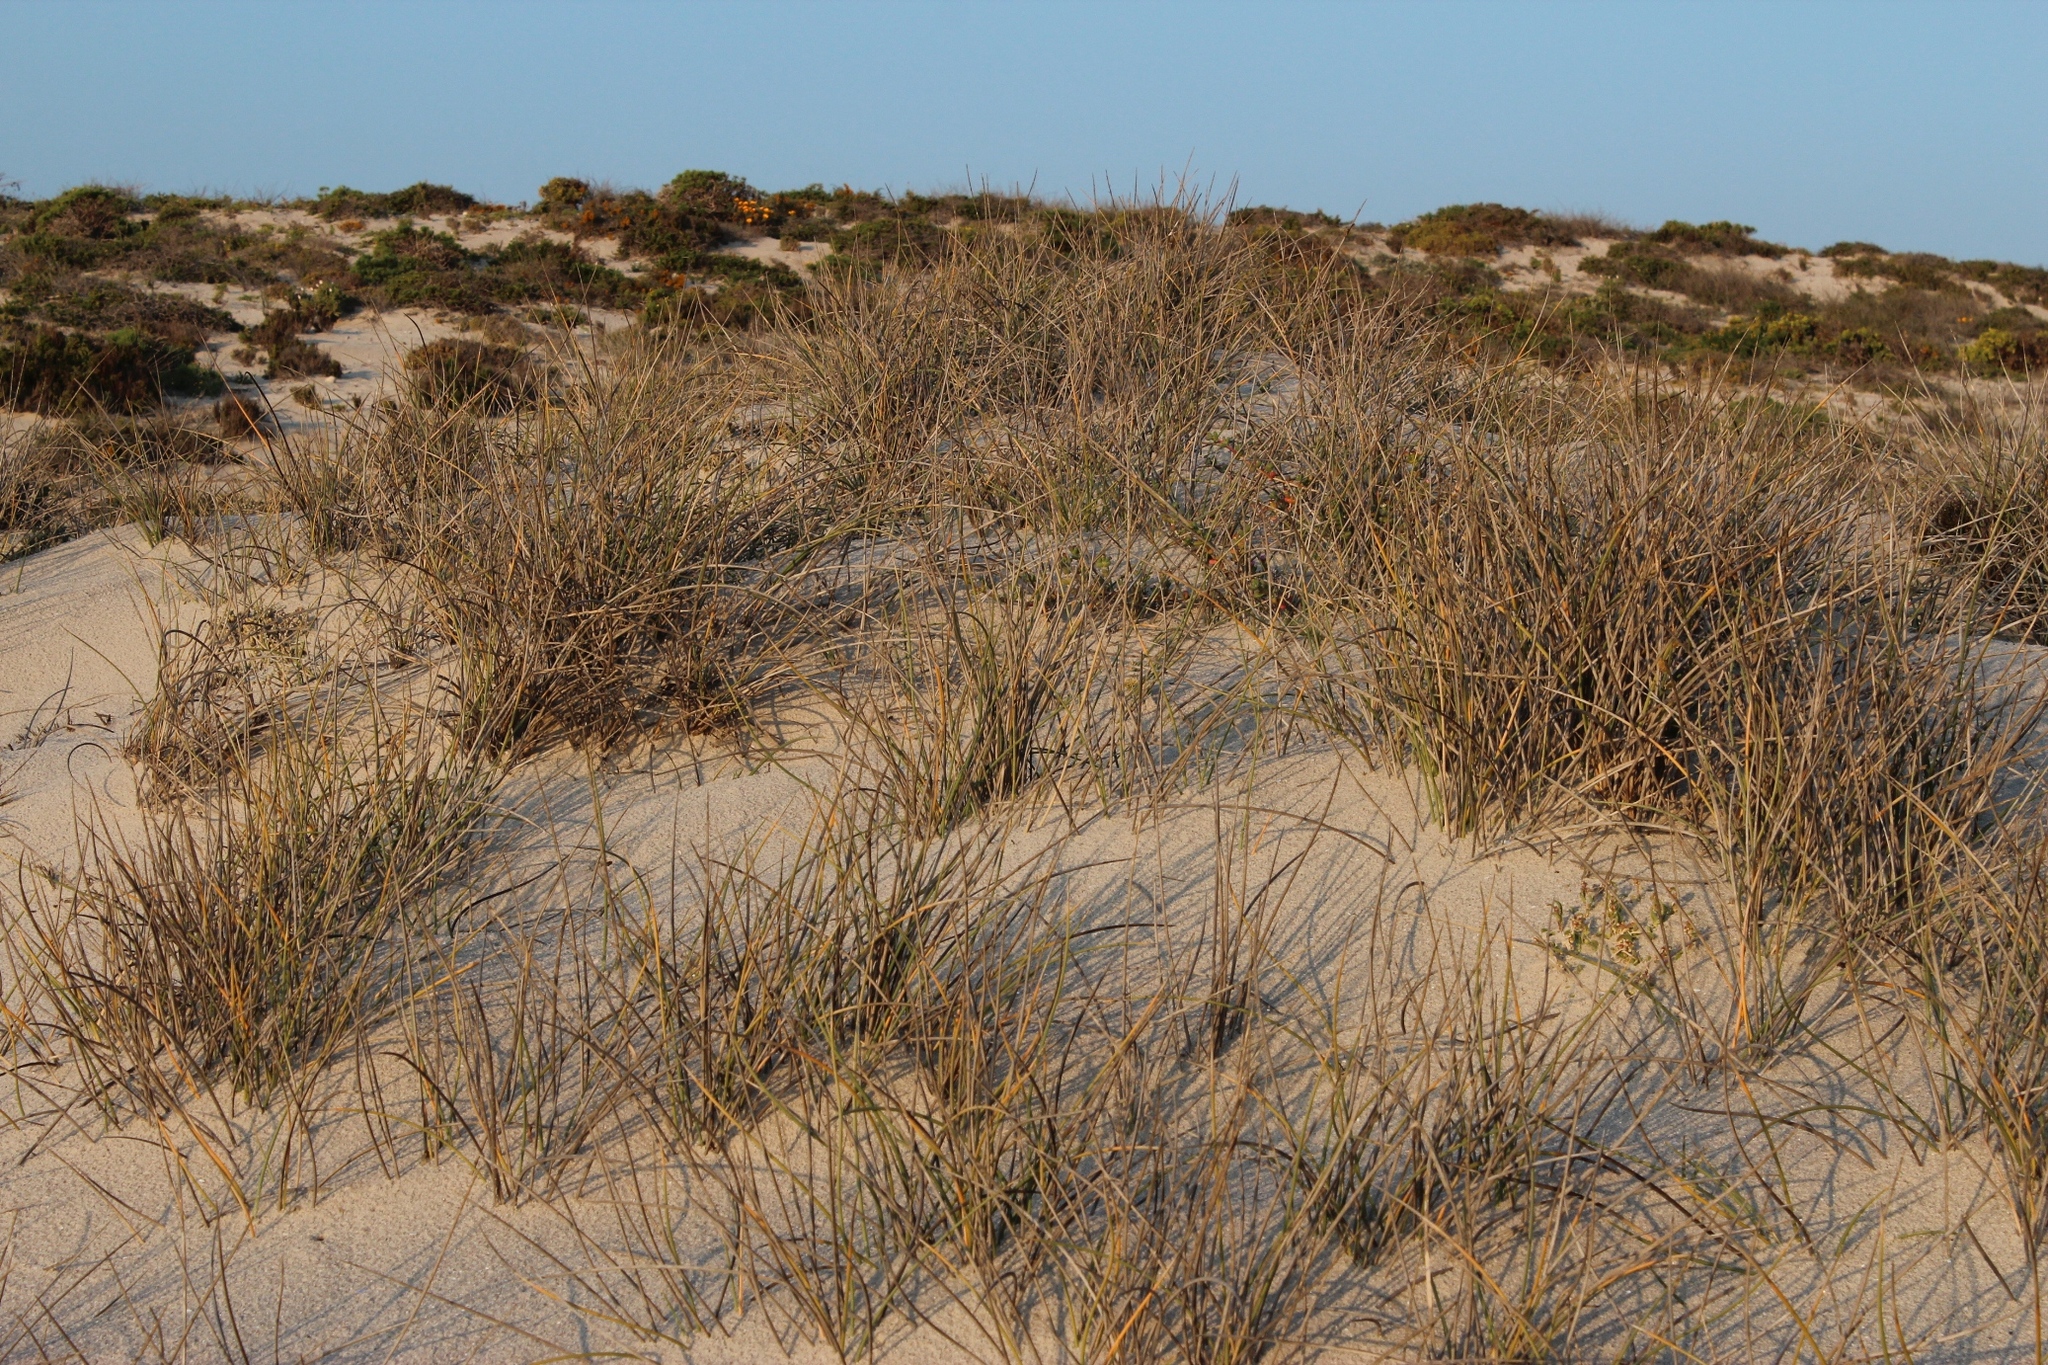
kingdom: Plantae
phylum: Tracheophyta
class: Liliopsida
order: Poales
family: Poaceae
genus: Cladoraphis
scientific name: Cladoraphis cyperoides
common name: Bristly lovegrass
